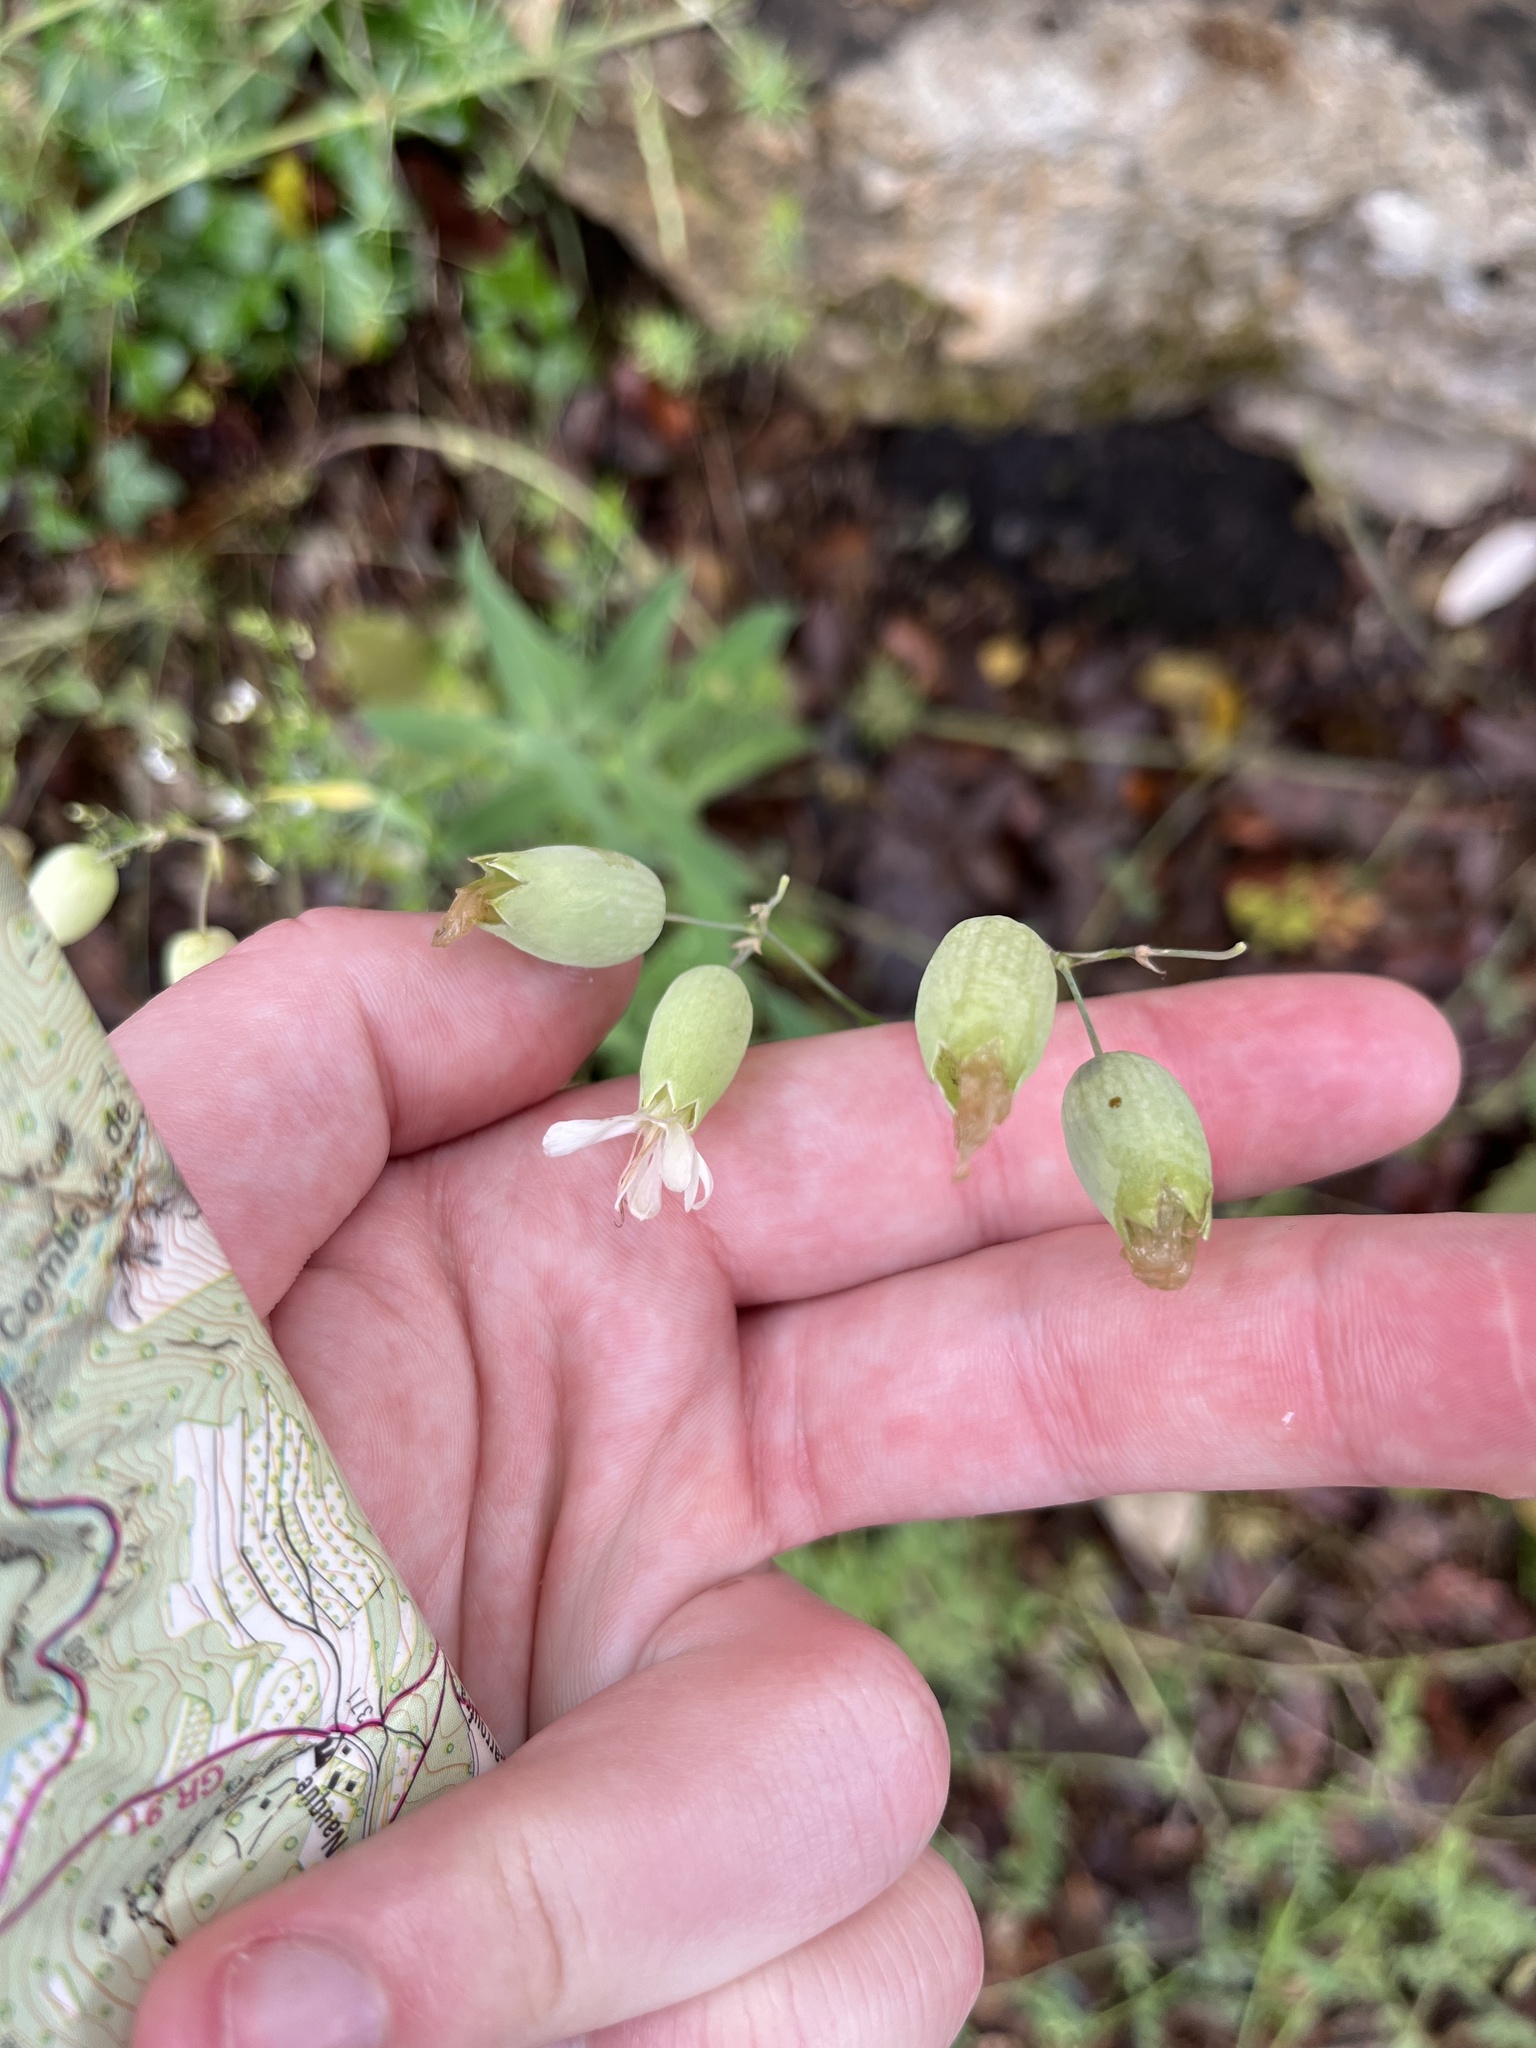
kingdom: Plantae
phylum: Tracheophyta
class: Magnoliopsida
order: Caryophyllales
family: Caryophyllaceae
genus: Silene
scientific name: Silene vulgaris
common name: Bladder campion
